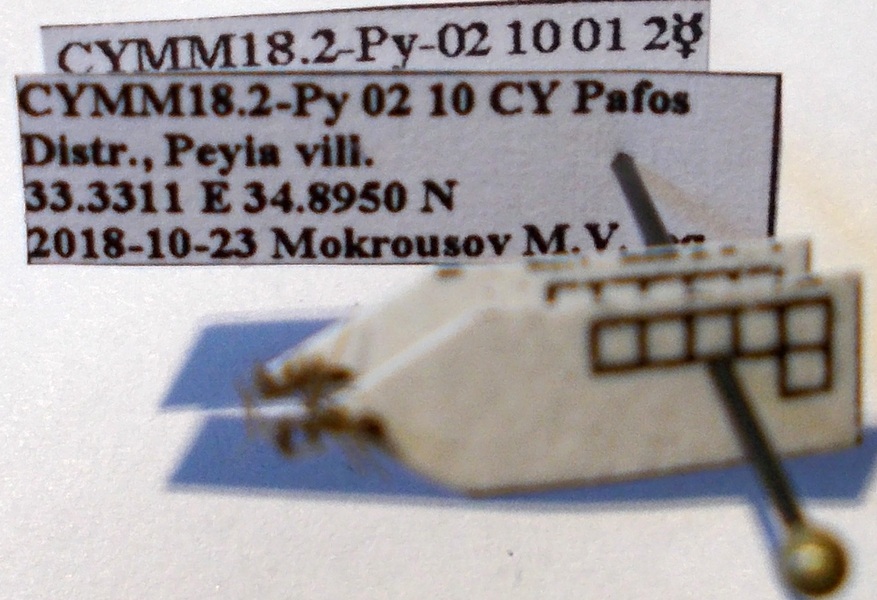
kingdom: Animalia
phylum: Arthropoda
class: Insecta
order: Hymenoptera
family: Formicidae
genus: Paratrechina
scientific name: Paratrechina longicornis
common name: Longhorned crazy ant
